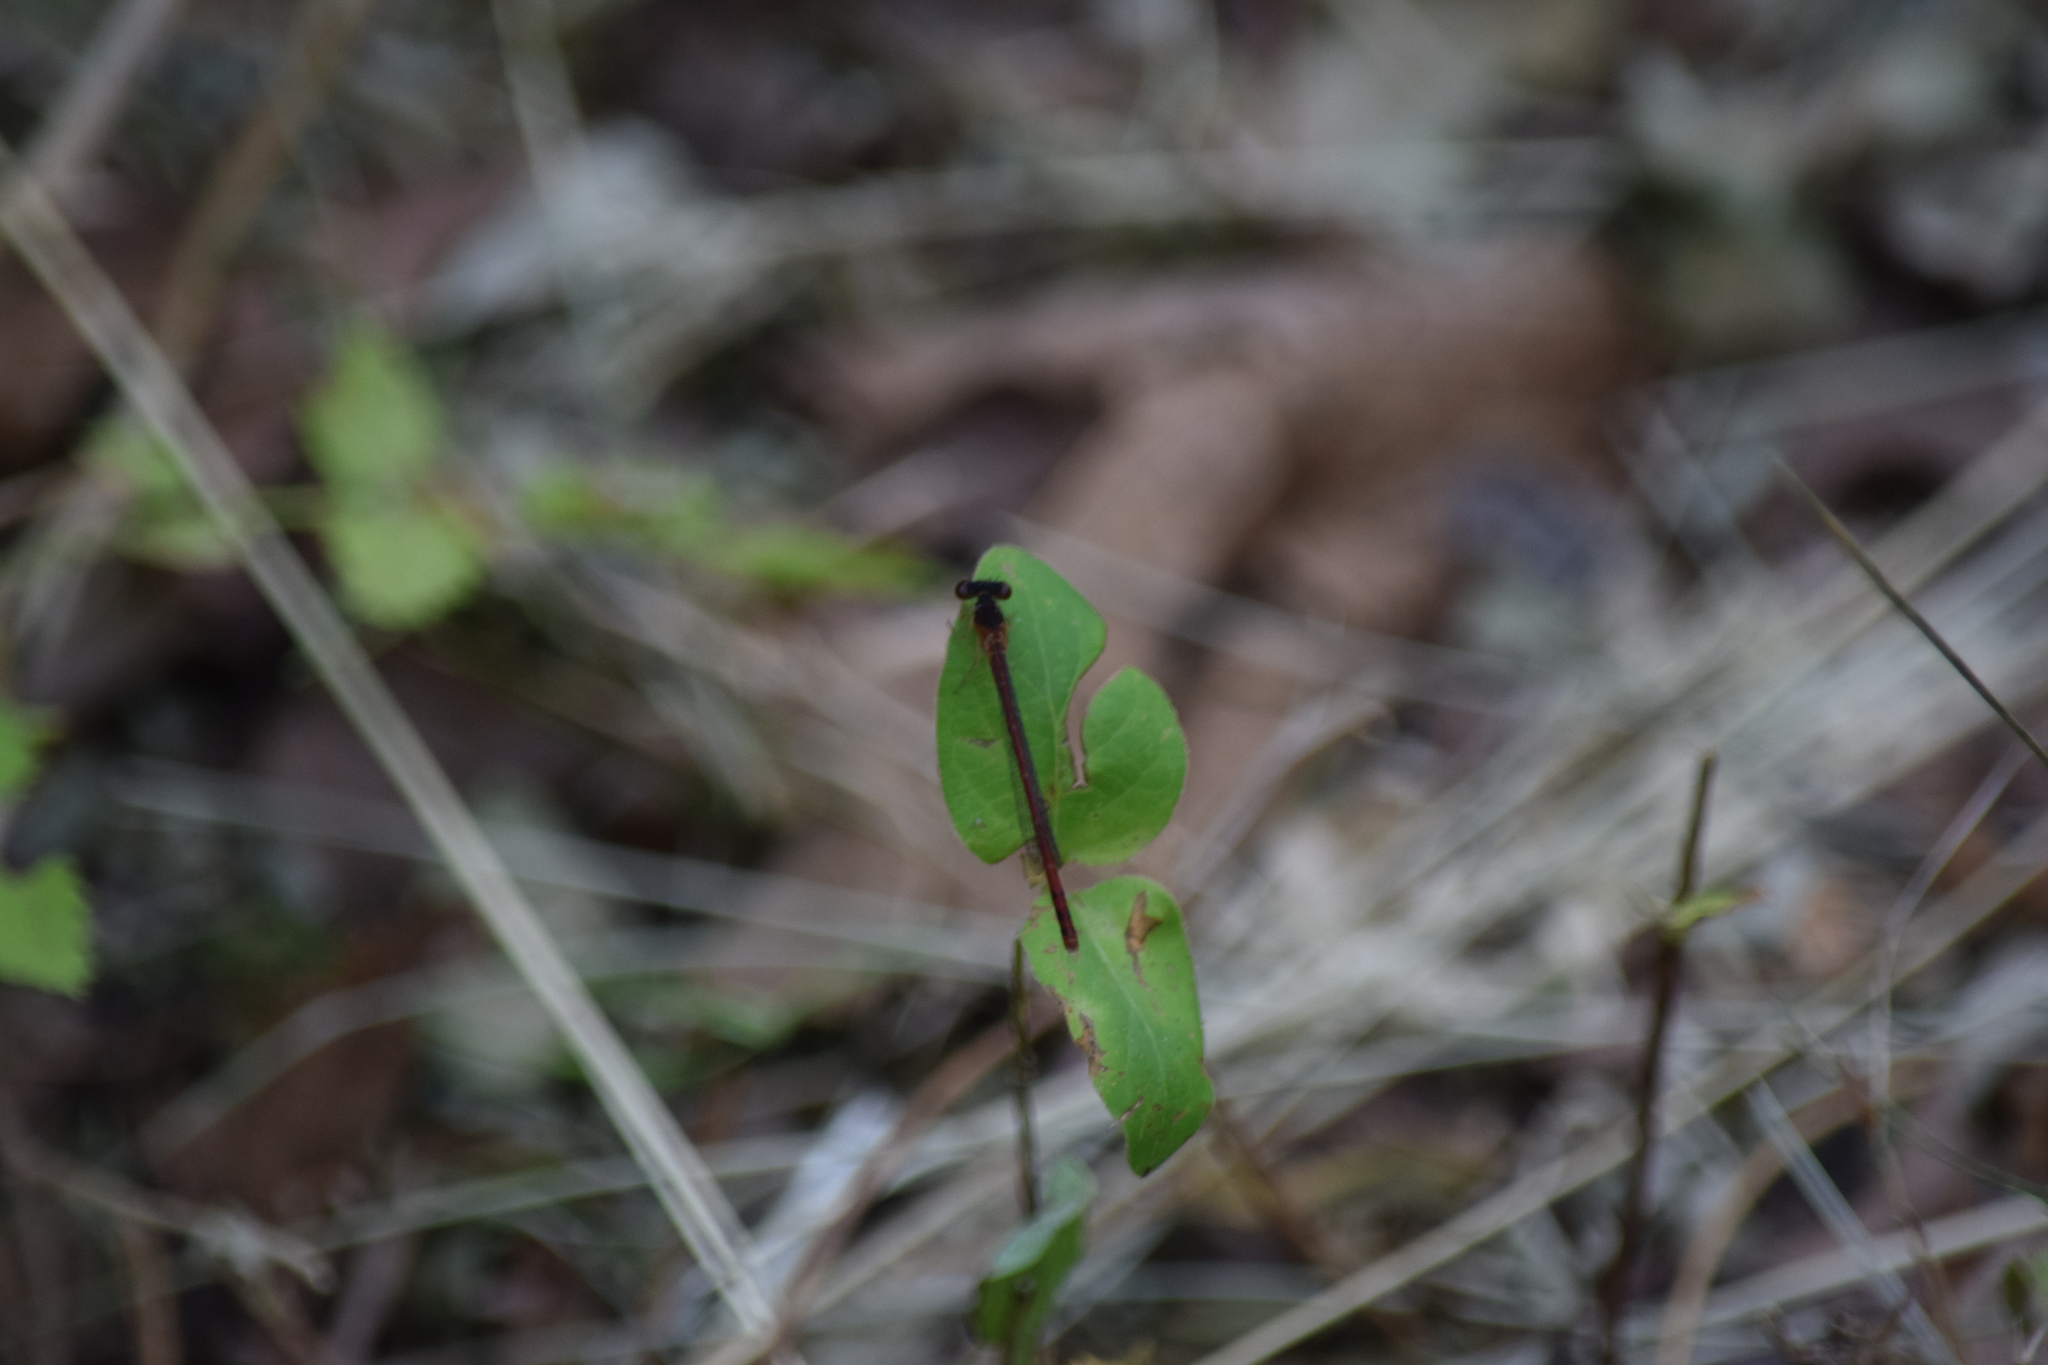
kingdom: Animalia
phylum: Arthropoda
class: Insecta
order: Odonata
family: Coenagrionidae
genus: Amphiagrion
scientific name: Amphiagrion saucium
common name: Eastern red damsel
